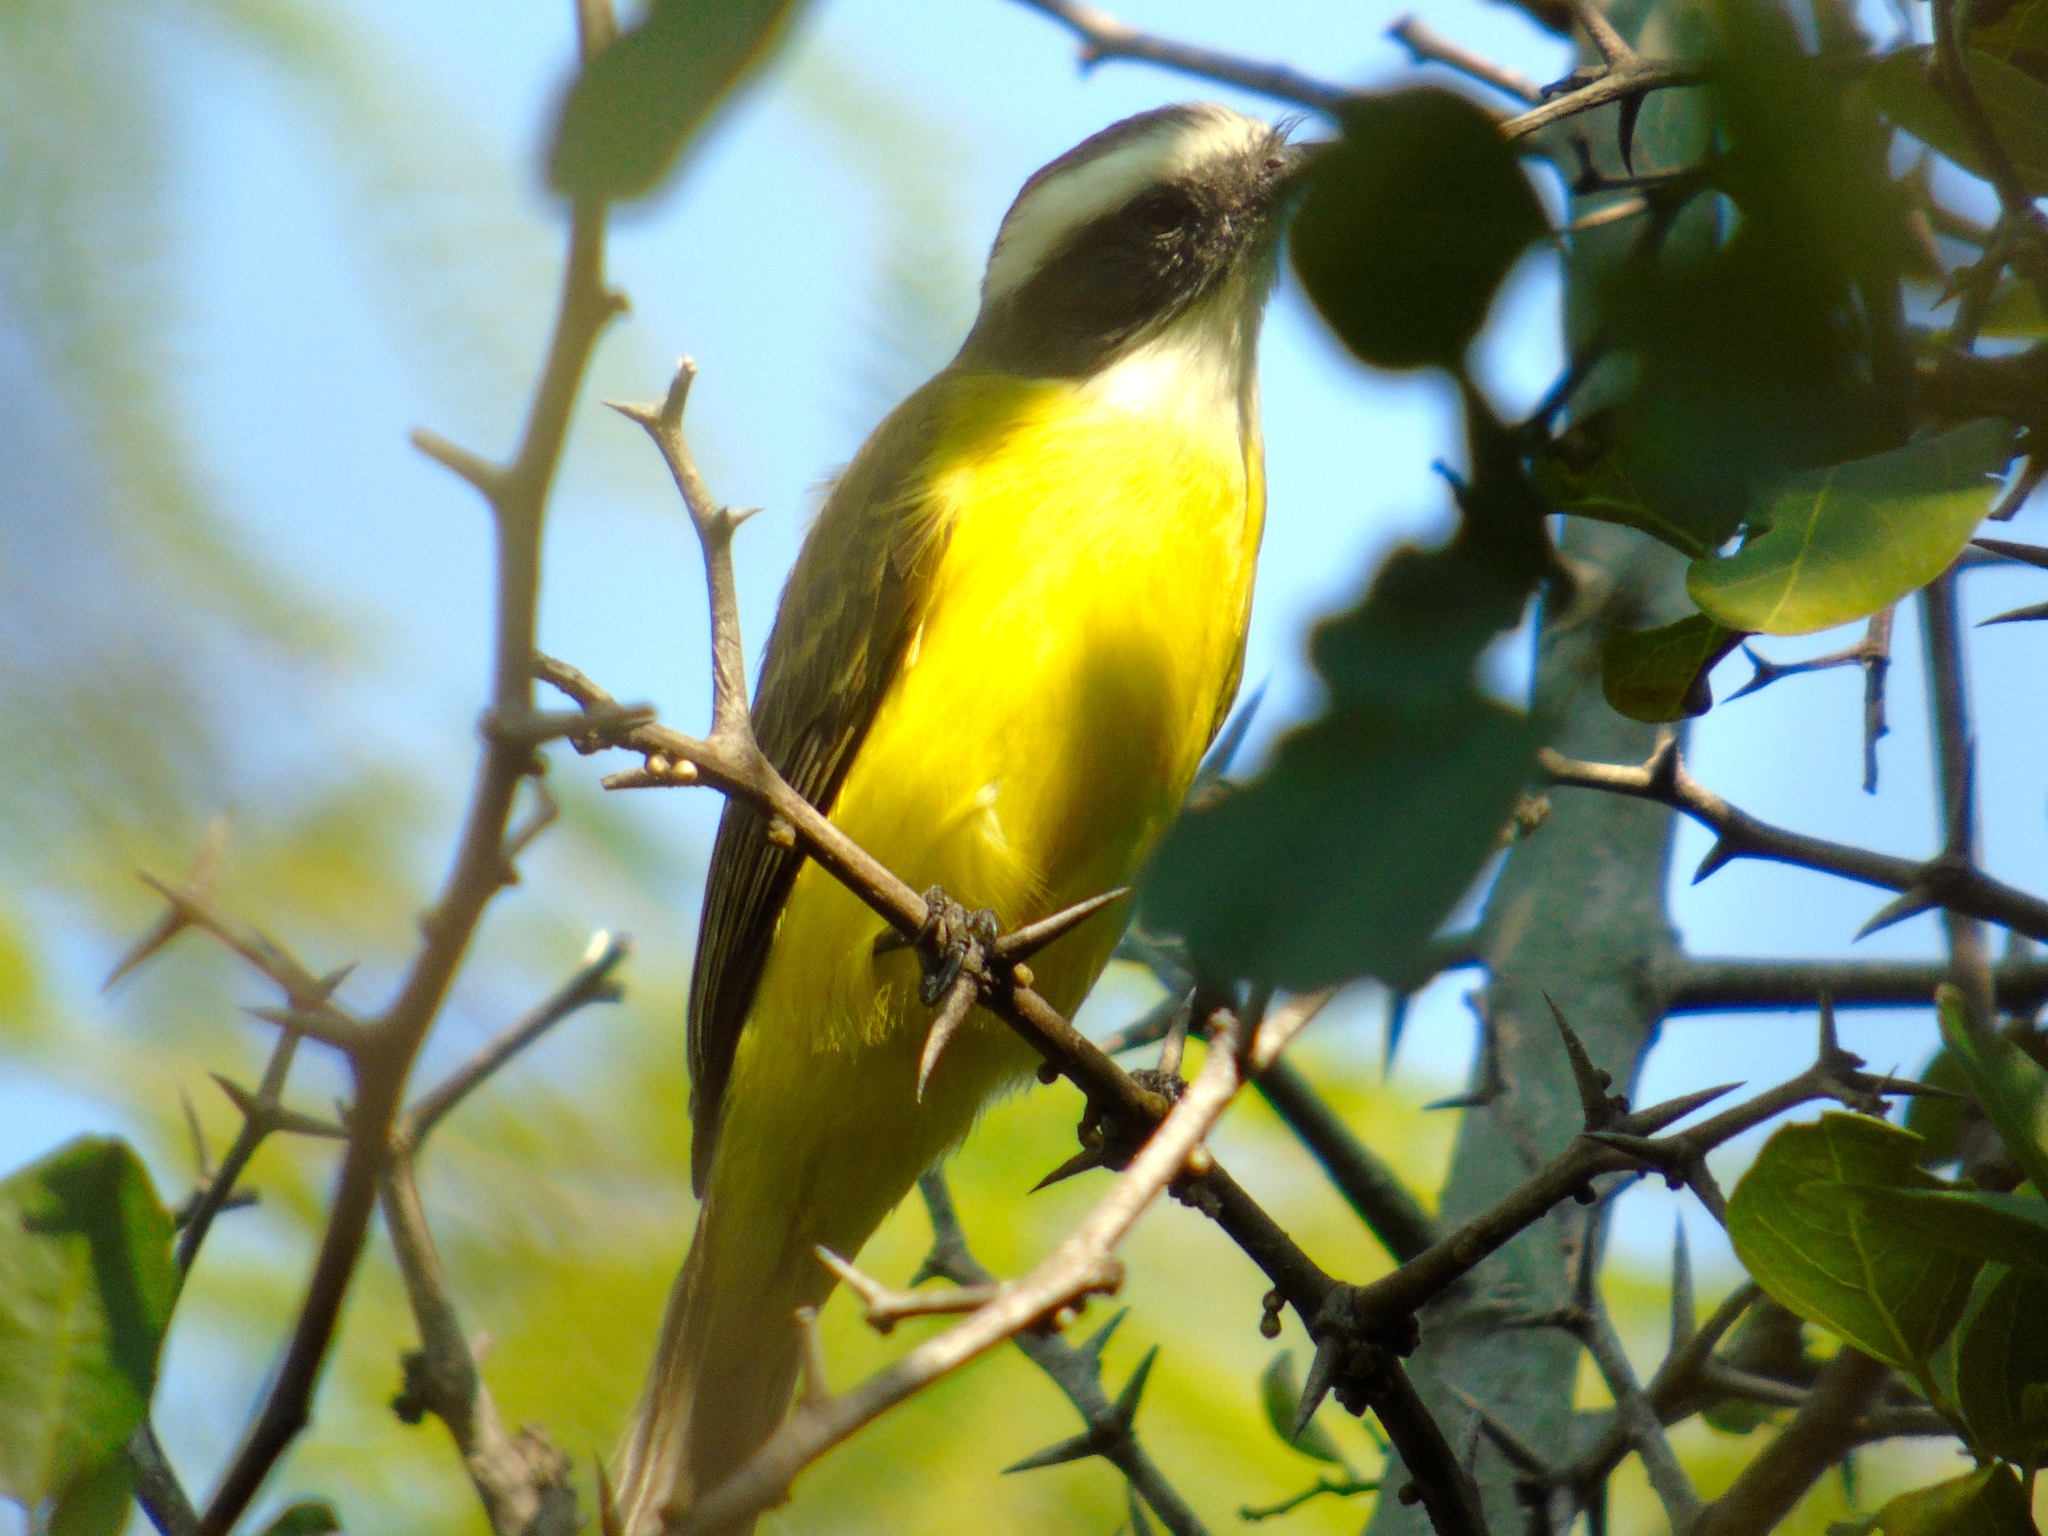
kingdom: Animalia
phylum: Chordata
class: Aves
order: Passeriformes
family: Tyrannidae
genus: Myiozetetes
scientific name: Myiozetetes similis
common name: Social flycatcher
